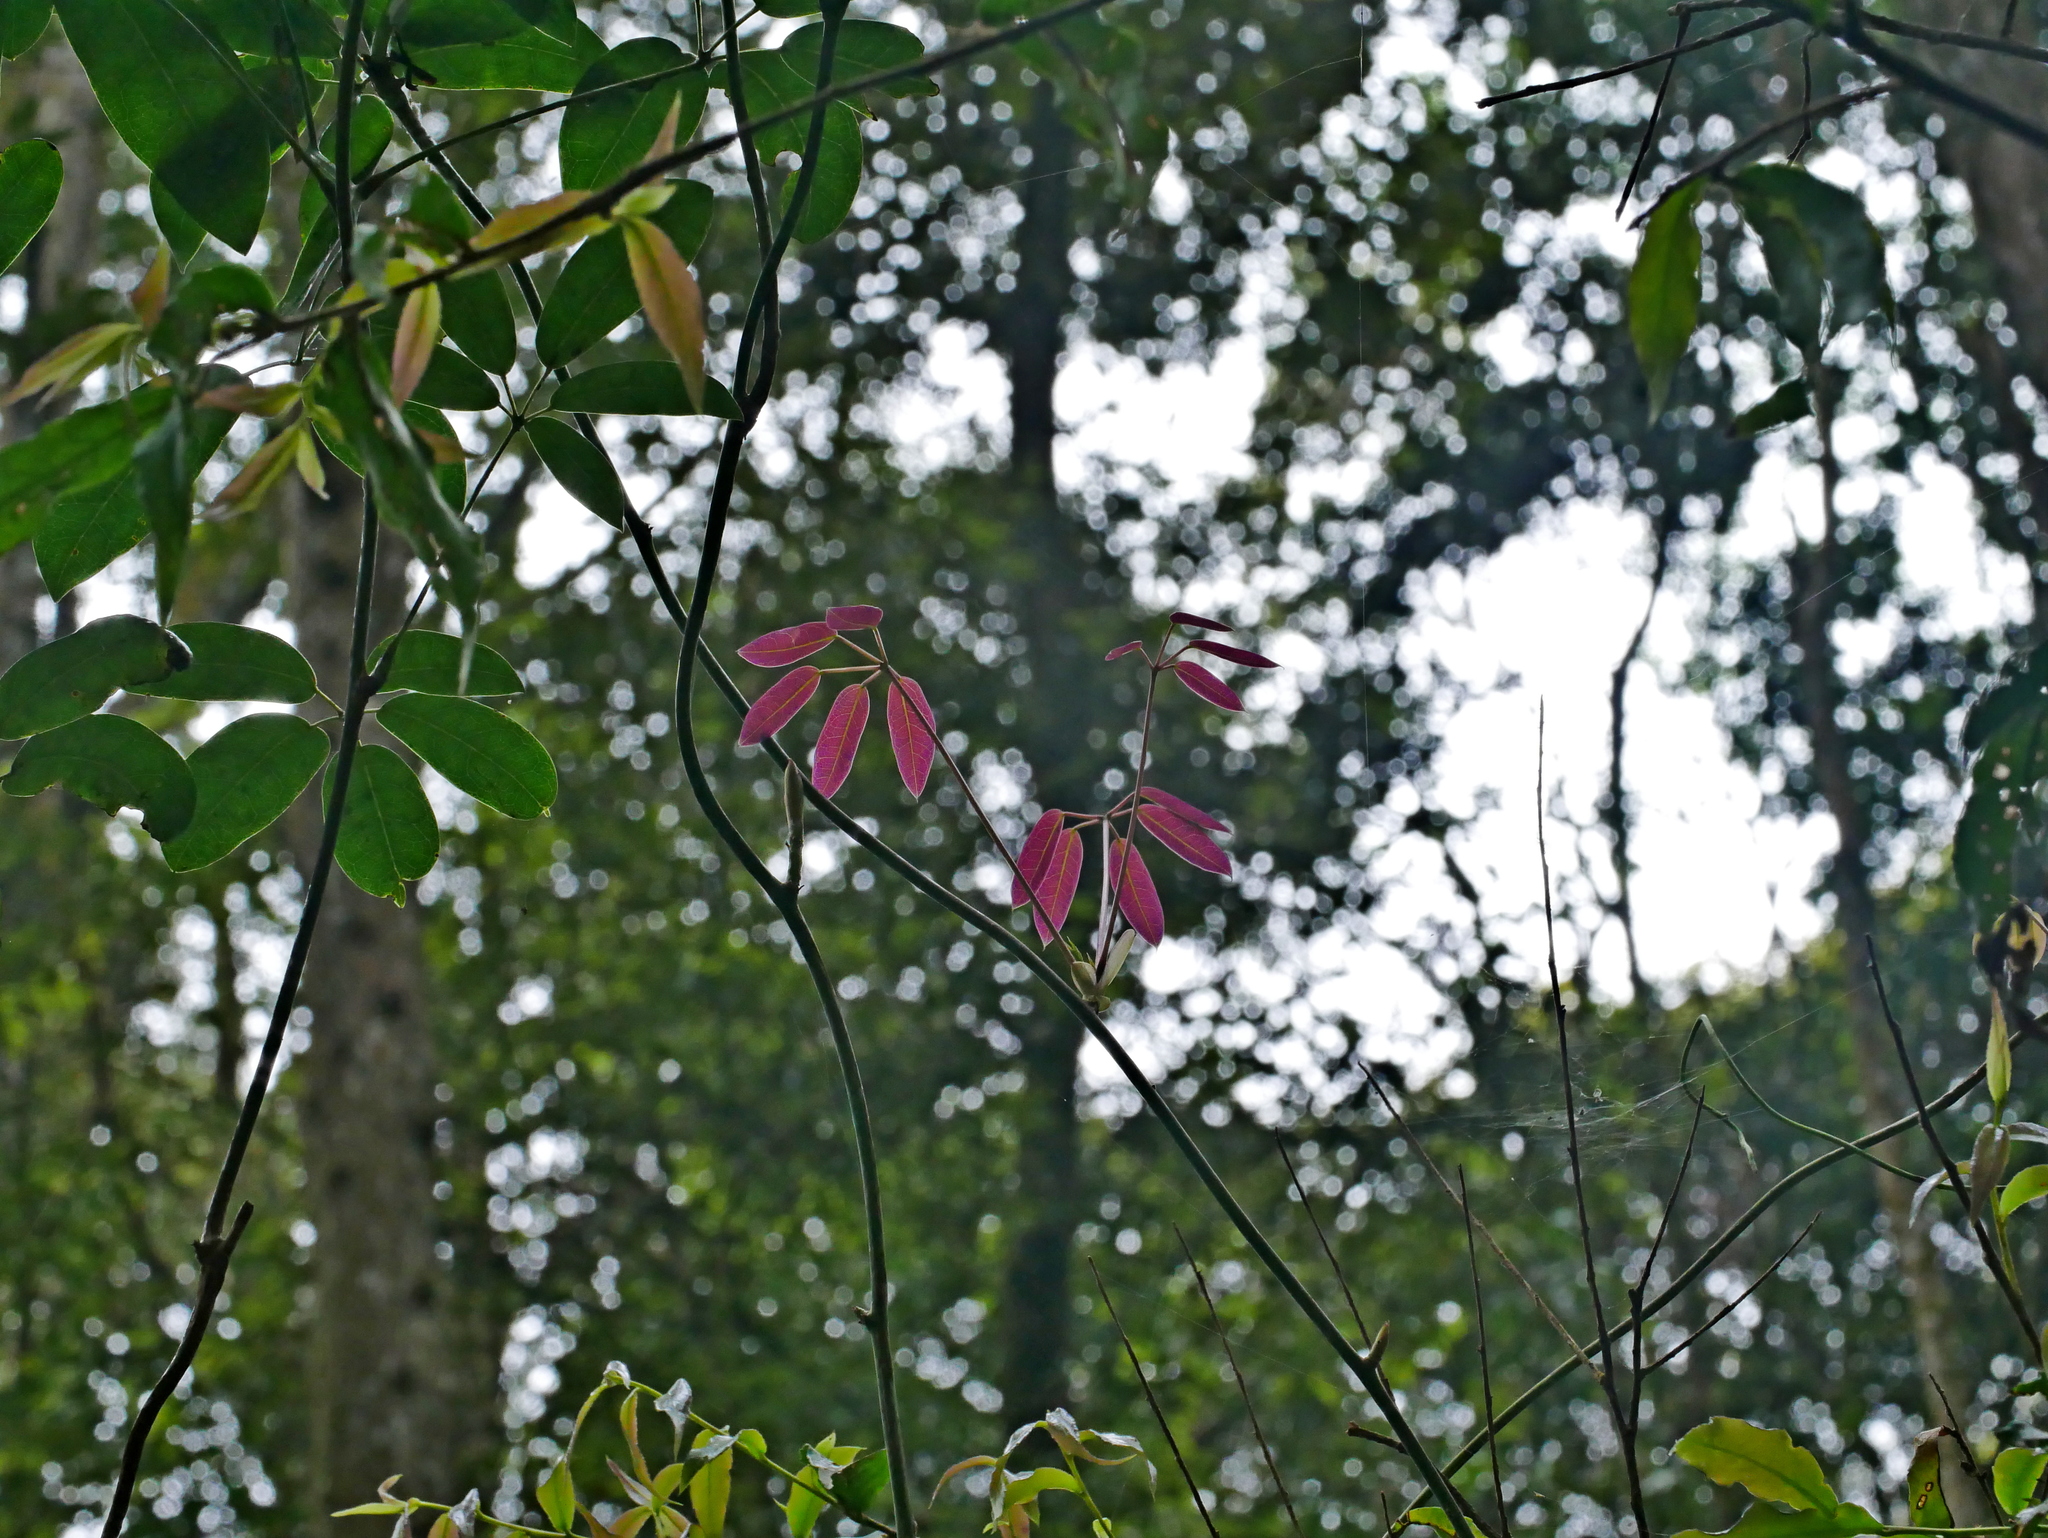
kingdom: Plantae
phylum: Tracheophyta
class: Magnoliopsida
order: Ranunculales
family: Lardizabalaceae
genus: Stauntonia
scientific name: Stauntonia obovata
